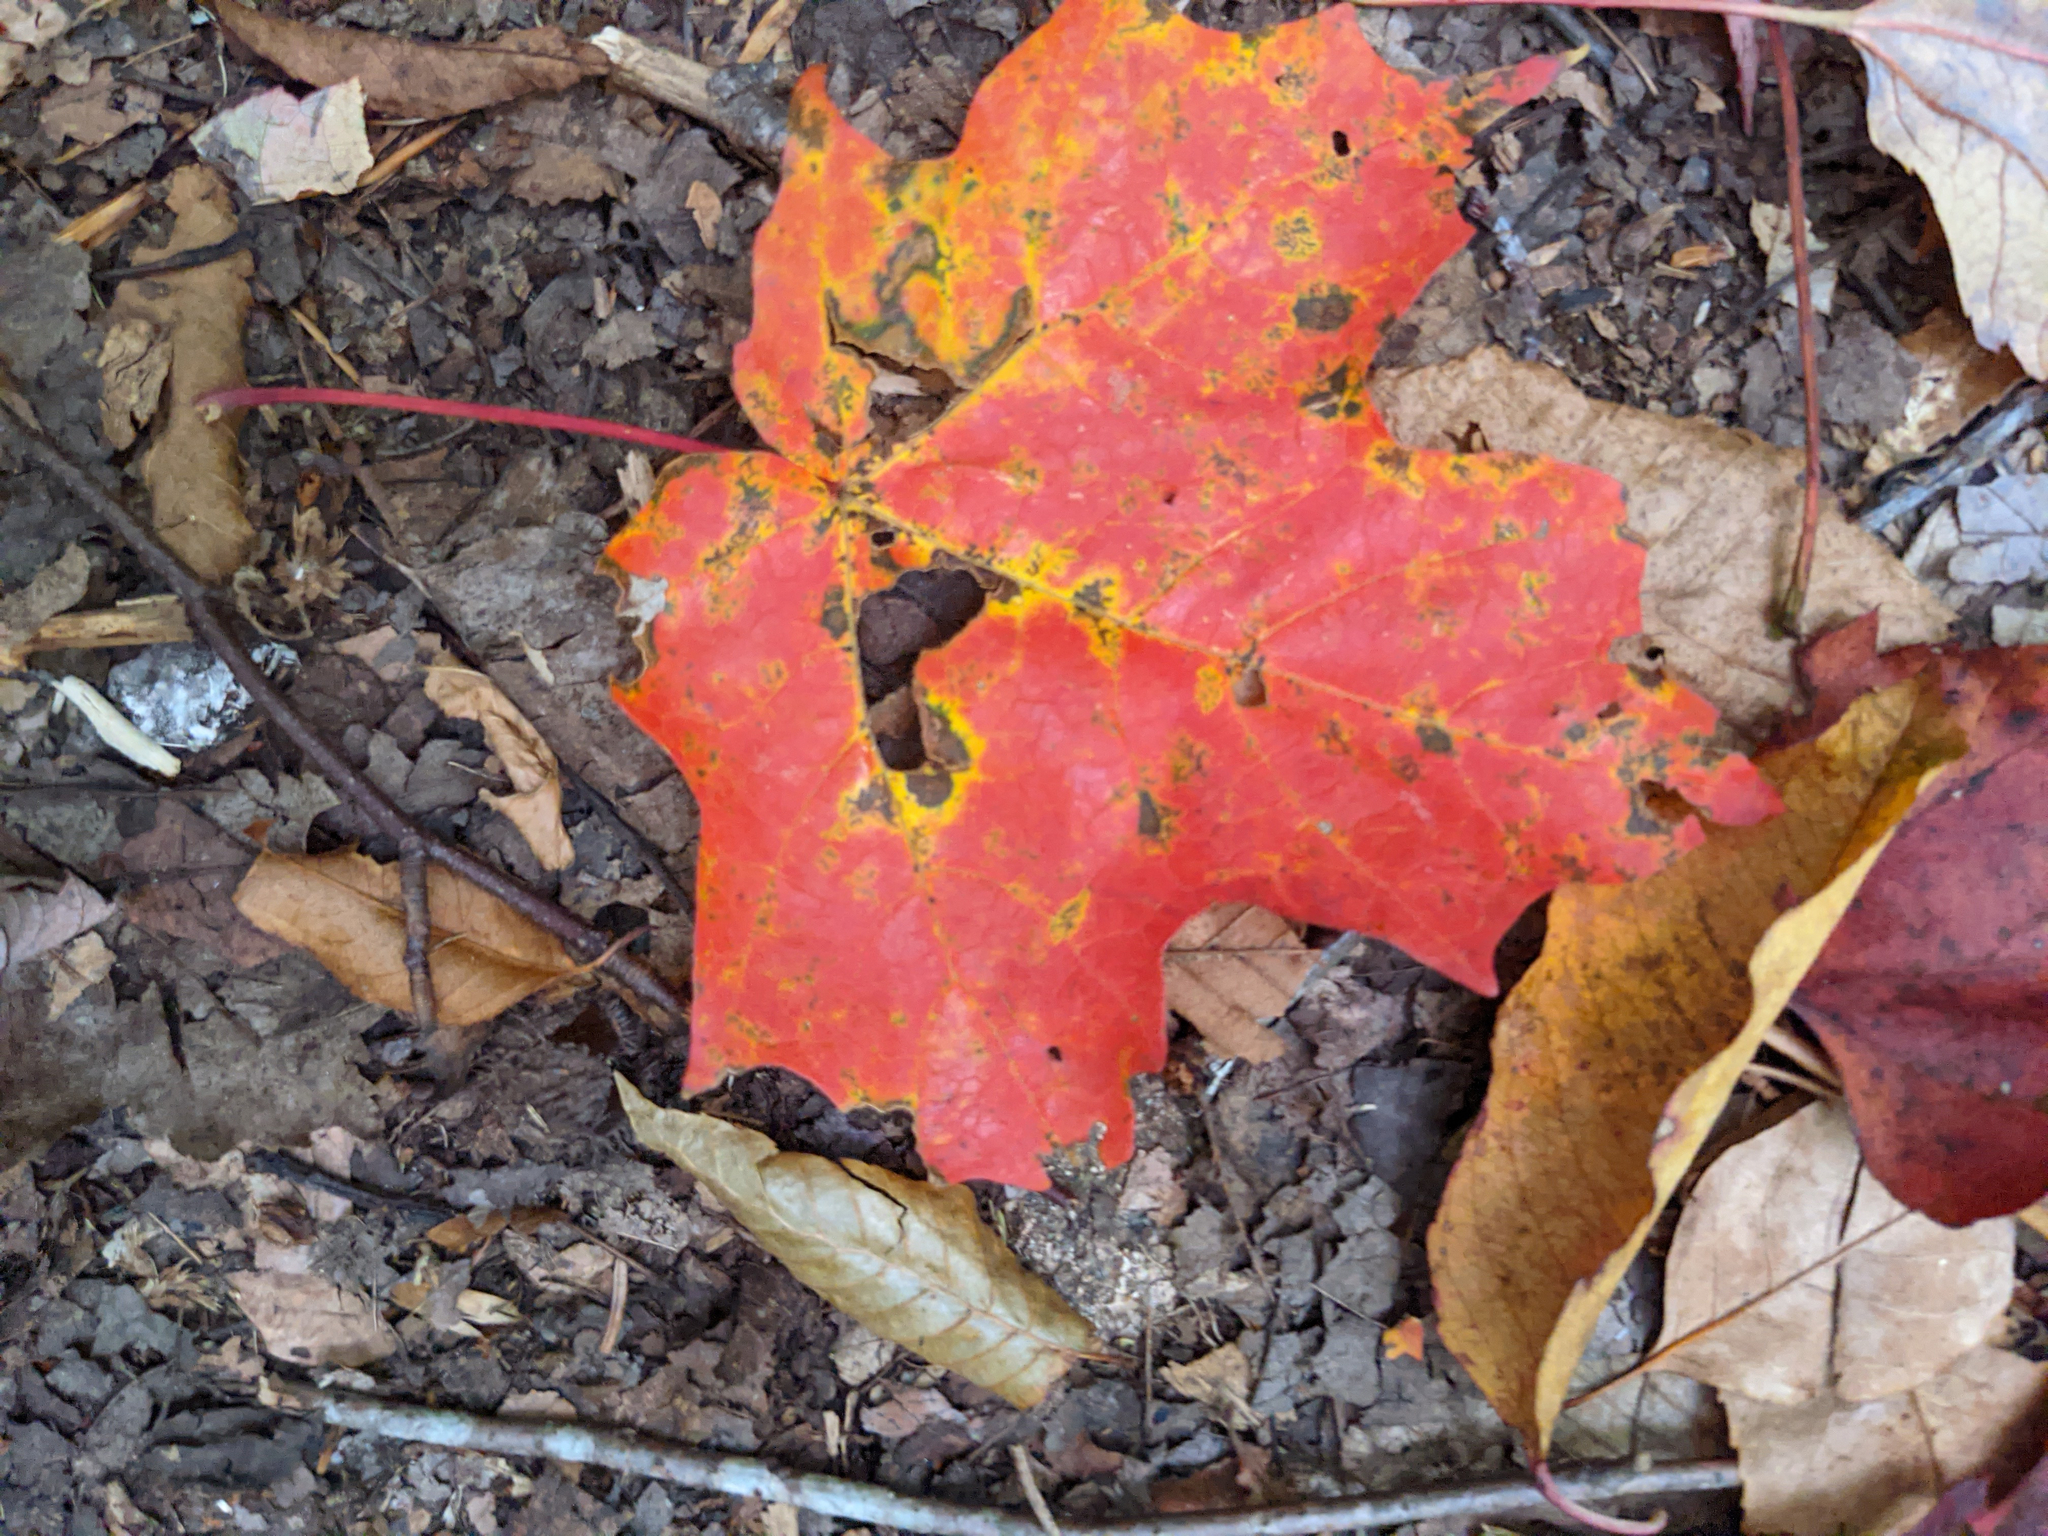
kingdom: Plantae
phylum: Tracheophyta
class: Magnoliopsida
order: Sapindales
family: Sapindaceae
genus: Acer
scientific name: Acer saccharum
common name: Sugar maple
